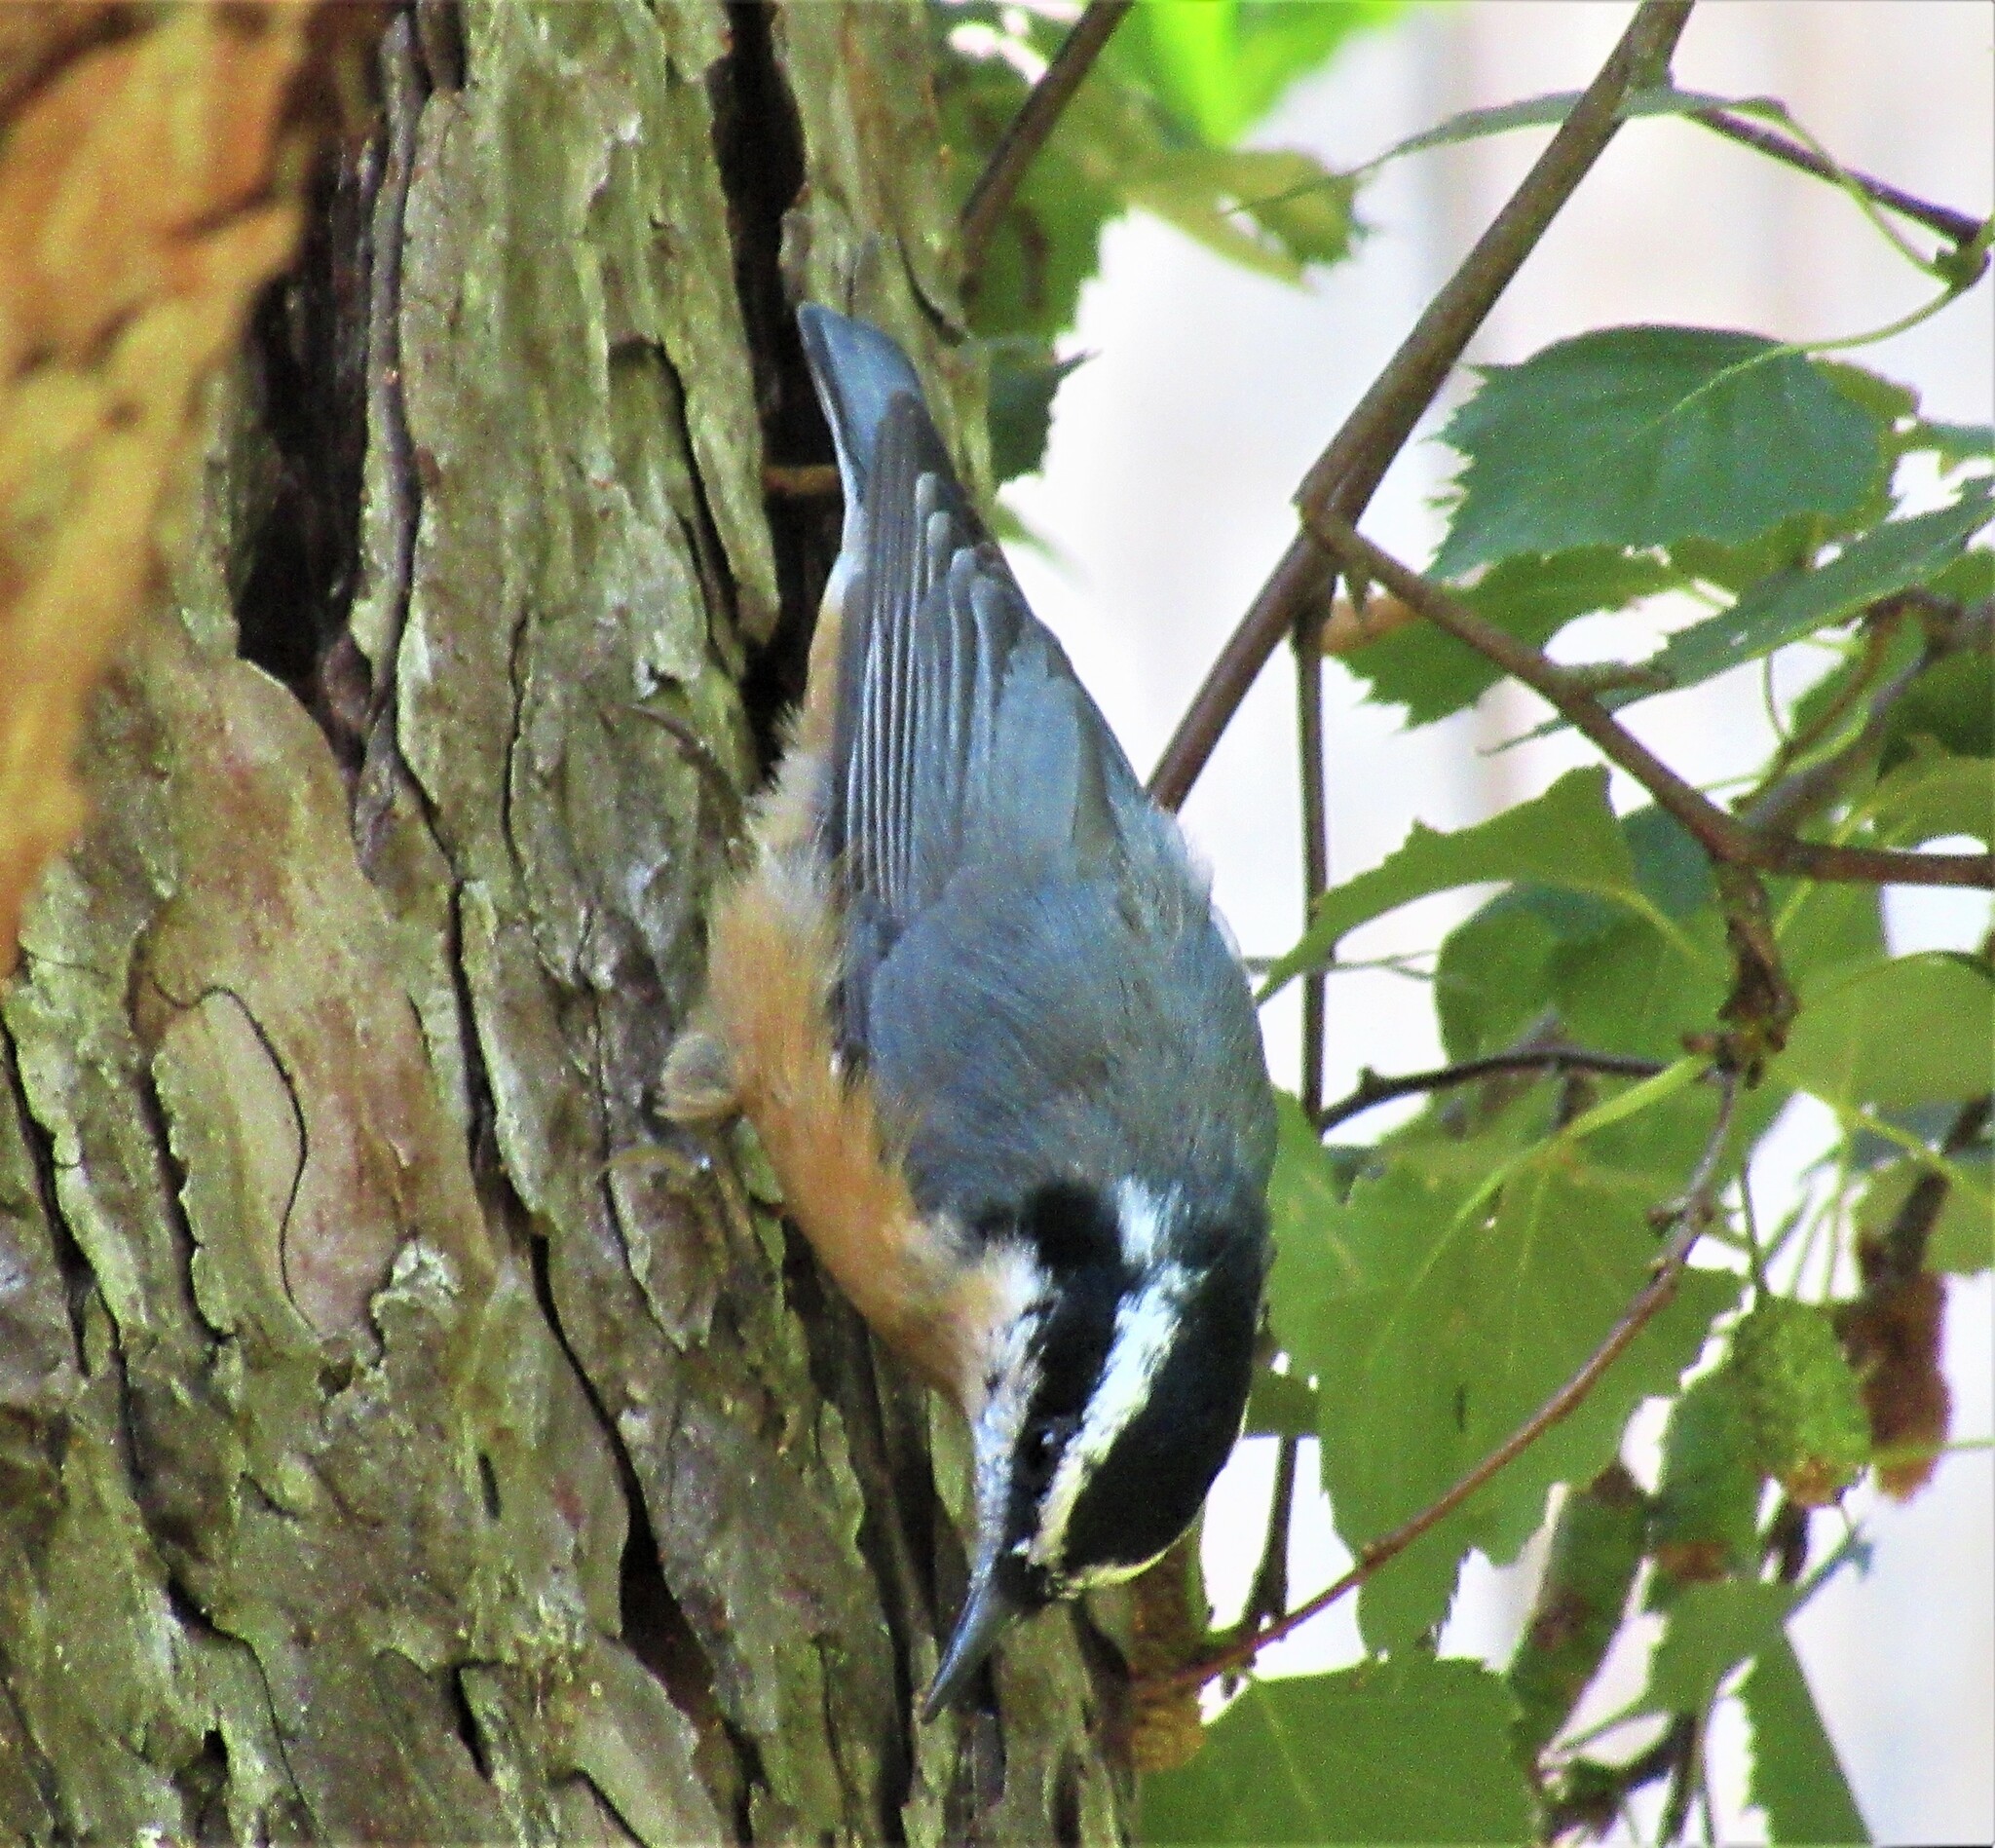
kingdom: Animalia
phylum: Chordata
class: Aves
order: Passeriformes
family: Sittidae
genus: Sitta
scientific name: Sitta canadensis
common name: Red-breasted nuthatch
